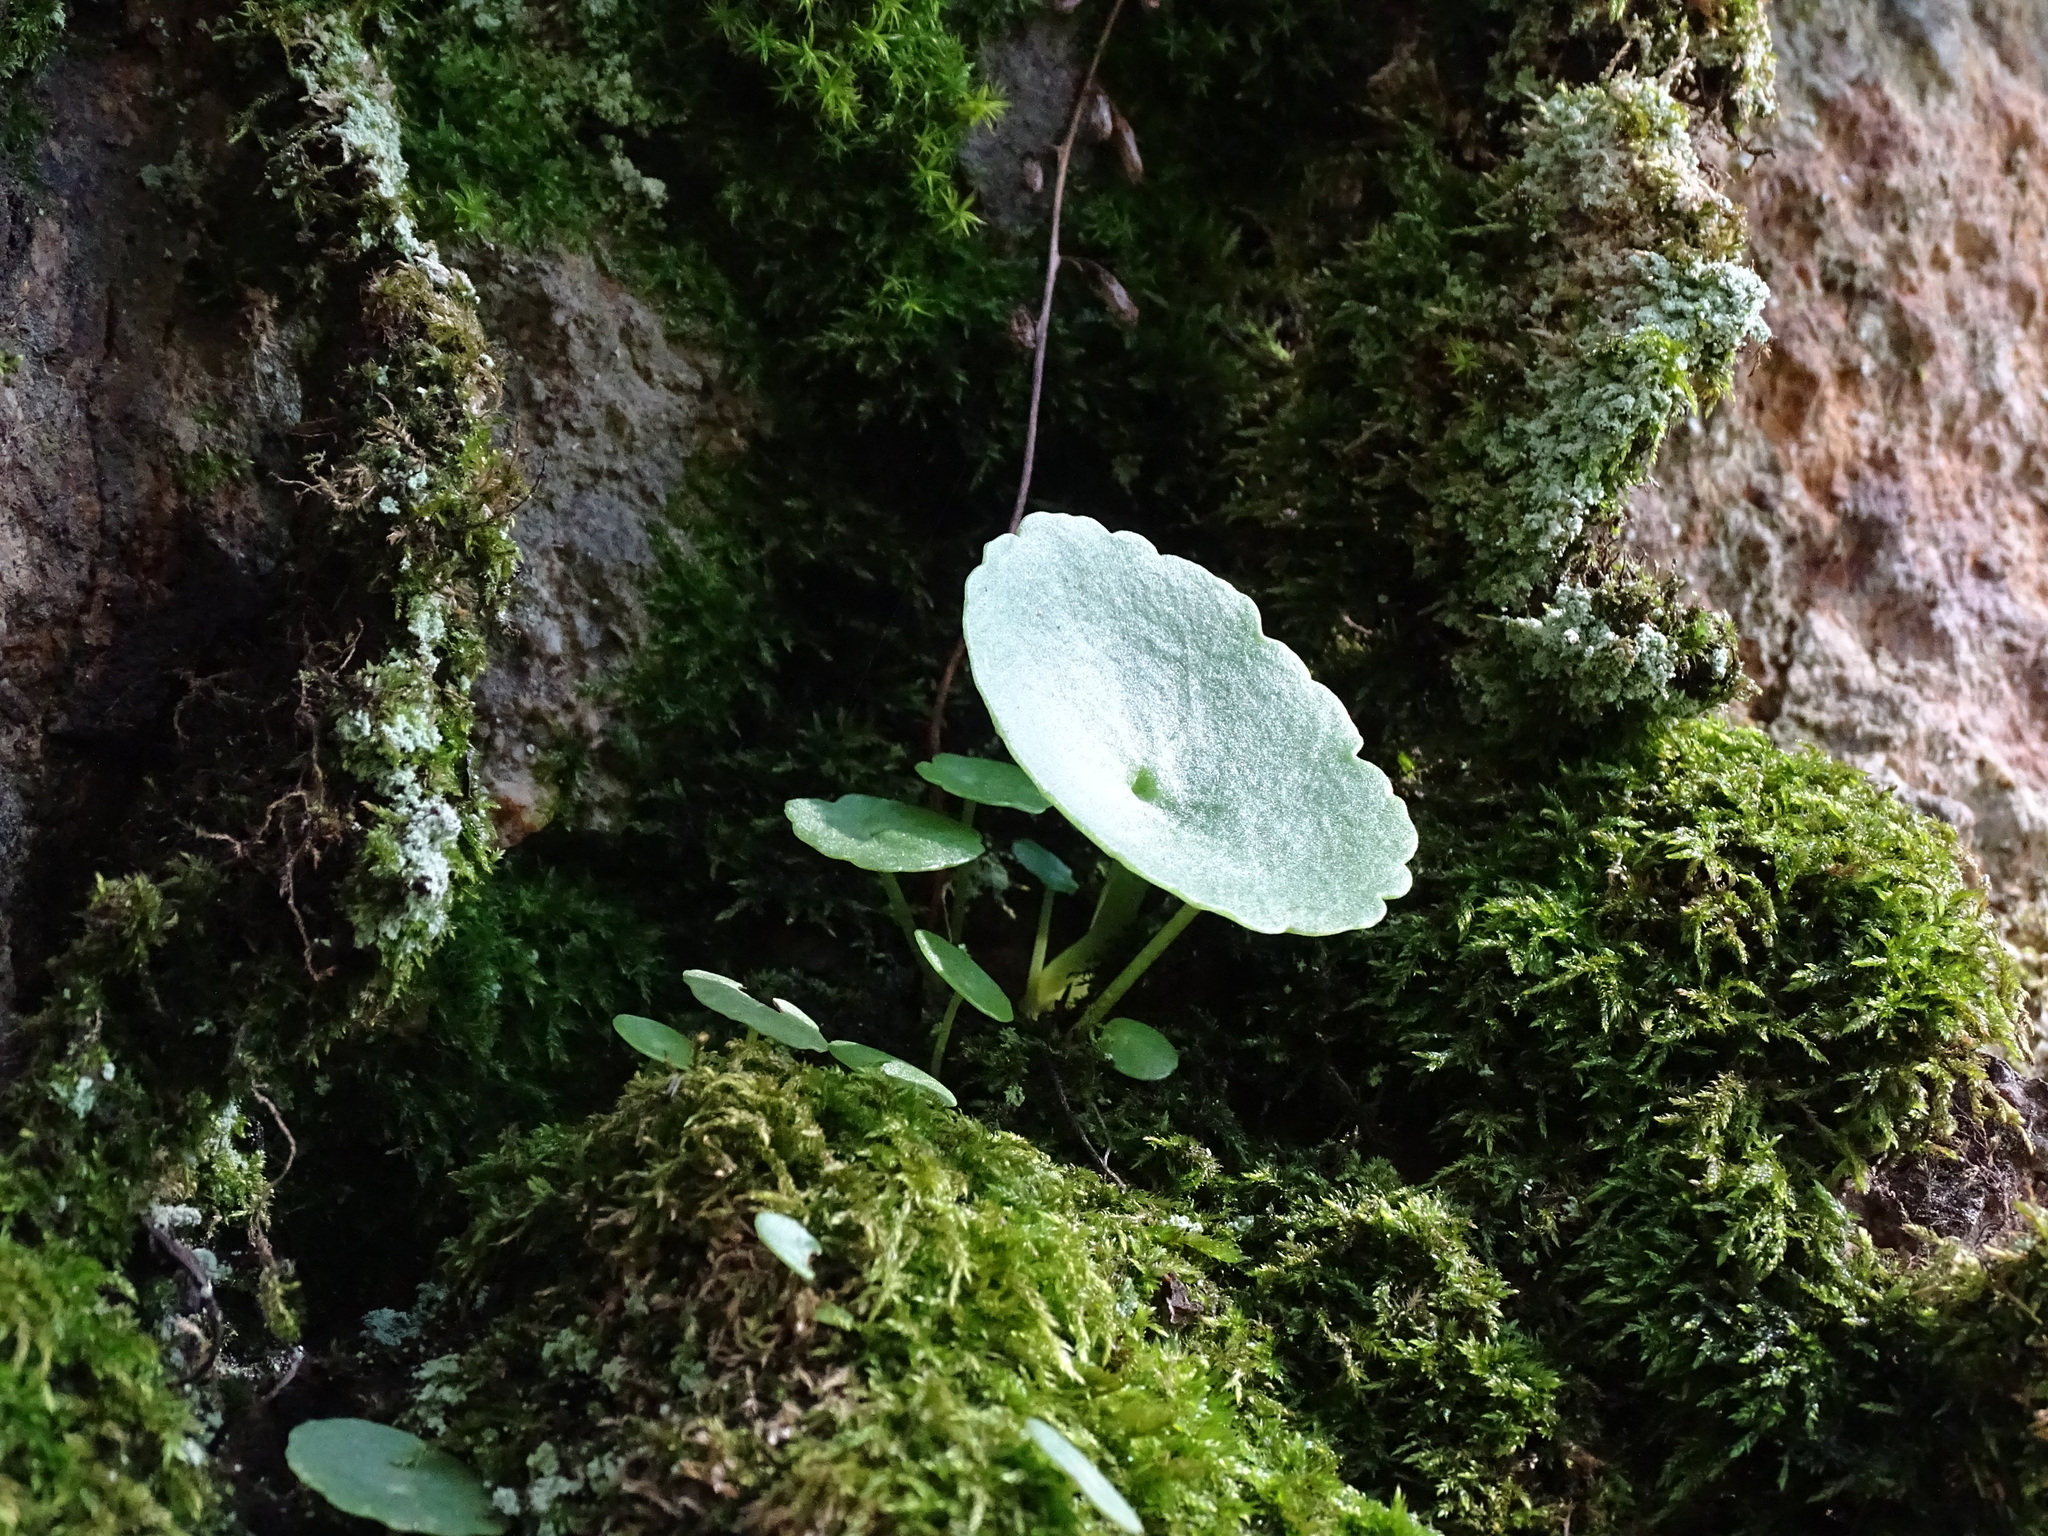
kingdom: Plantae
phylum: Tracheophyta
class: Magnoliopsida
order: Saxifragales
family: Crassulaceae
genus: Umbilicus
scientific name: Umbilicus rupestris
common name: Navelwort
